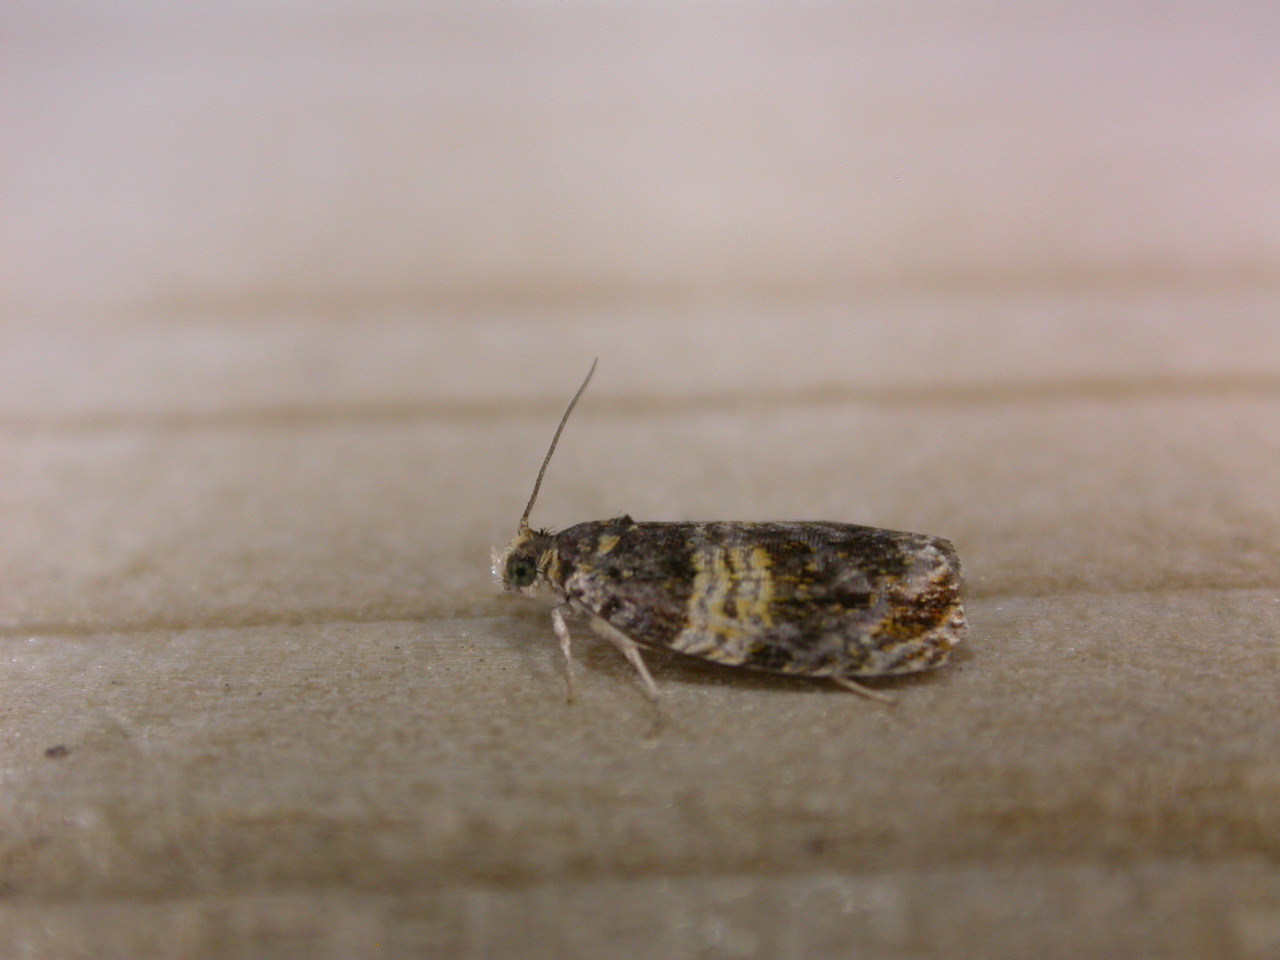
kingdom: Animalia
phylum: Arthropoda
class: Insecta
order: Lepidoptera
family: Tortricidae
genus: Celypha
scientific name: Celypha aurofasciana
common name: Moss marble
